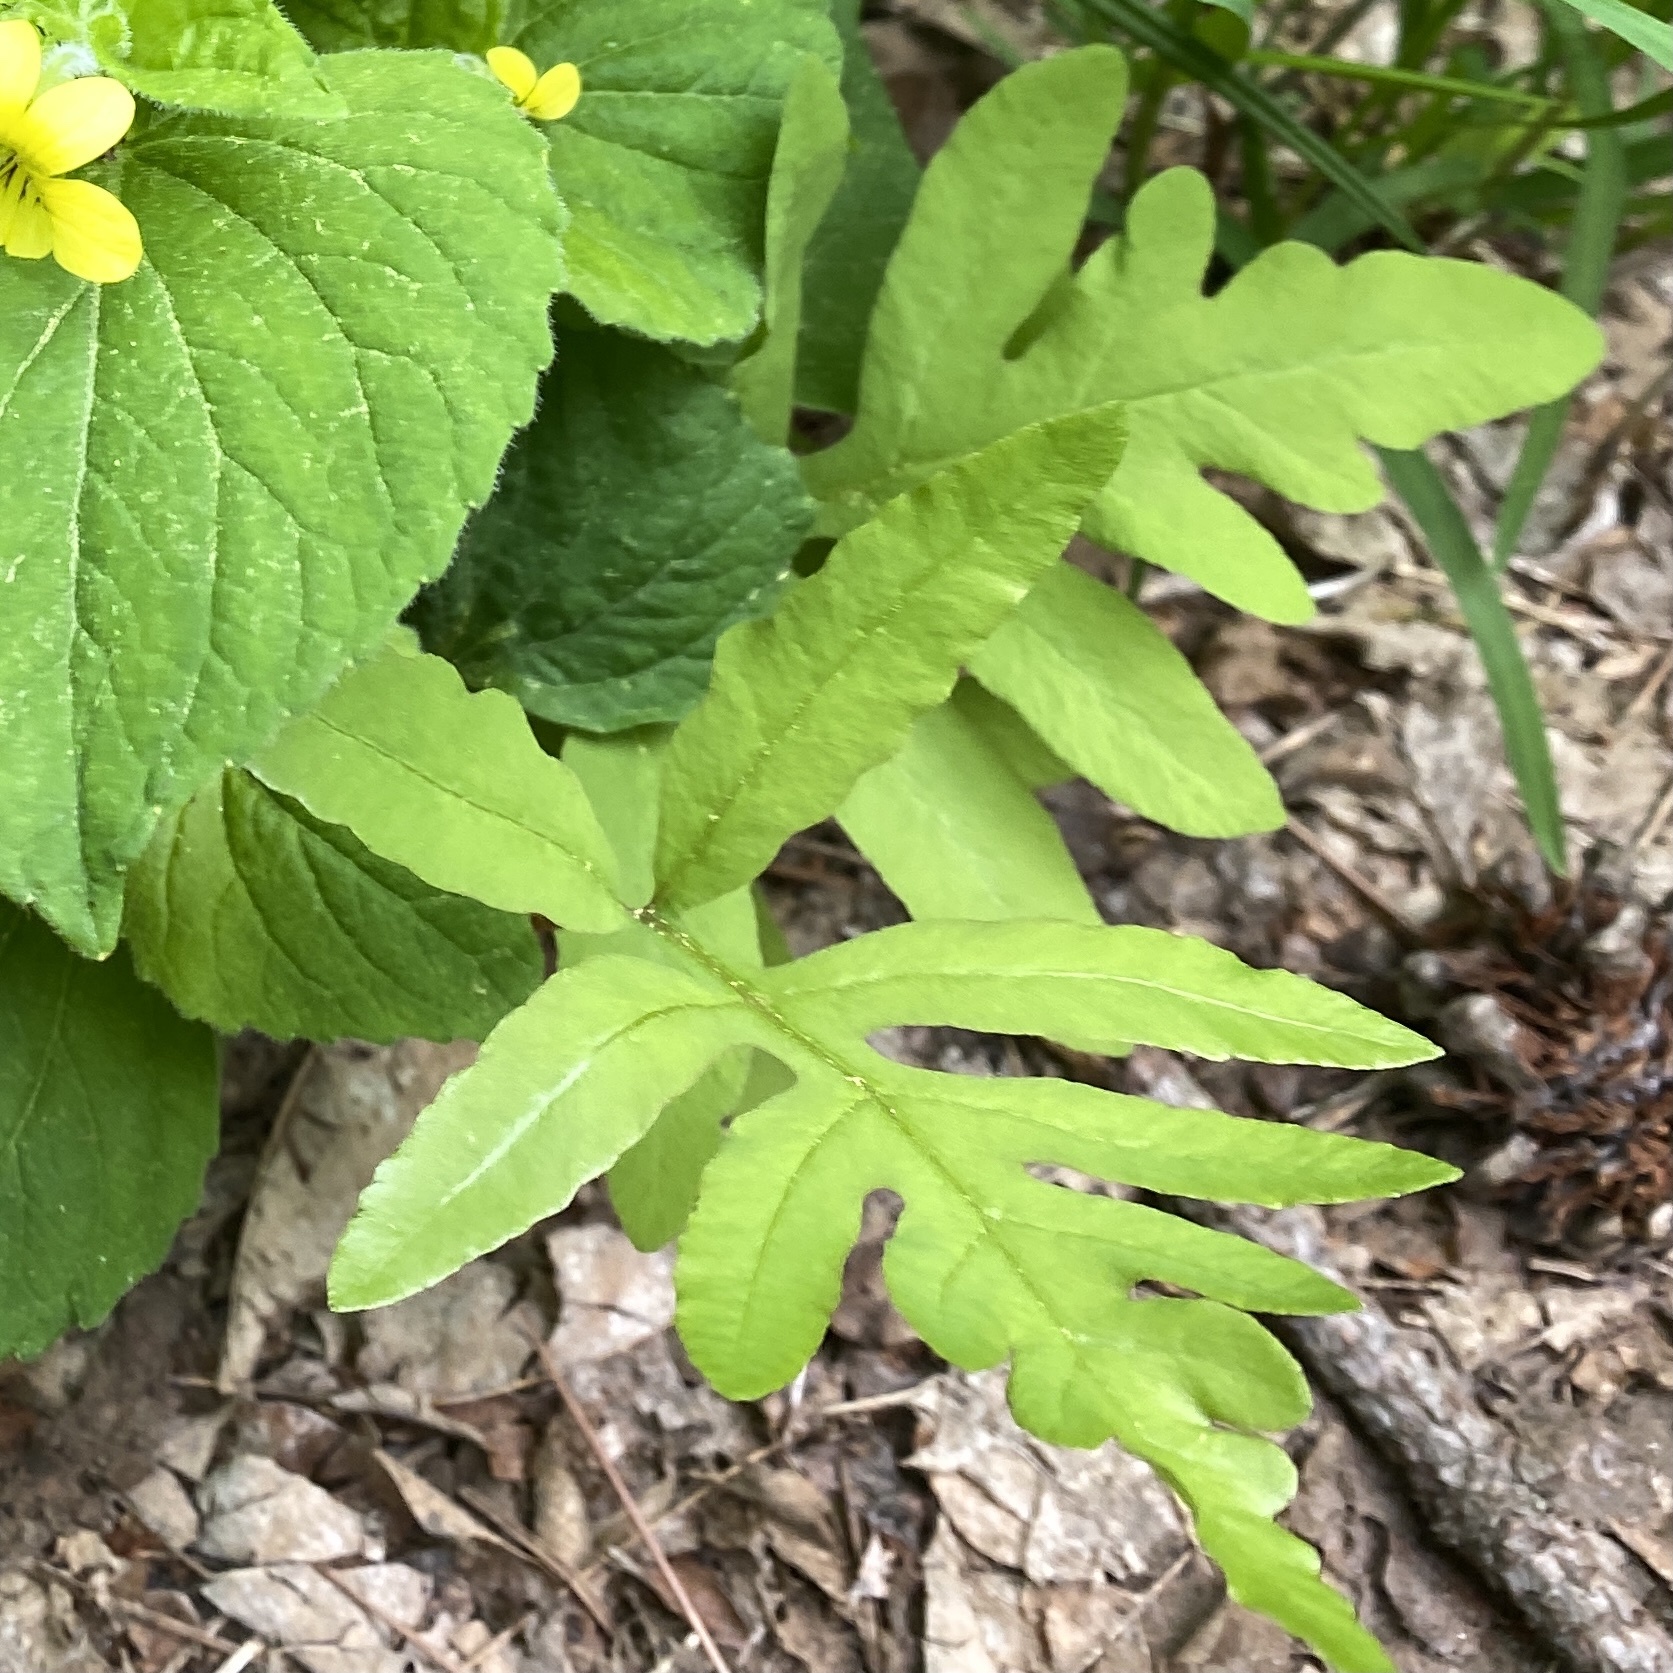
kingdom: Plantae
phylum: Tracheophyta
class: Polypodiopsida
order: Polypodiales
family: Onocleaceae
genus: Onoclea
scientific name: Onoclea sensibilis
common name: Sensitive fern
